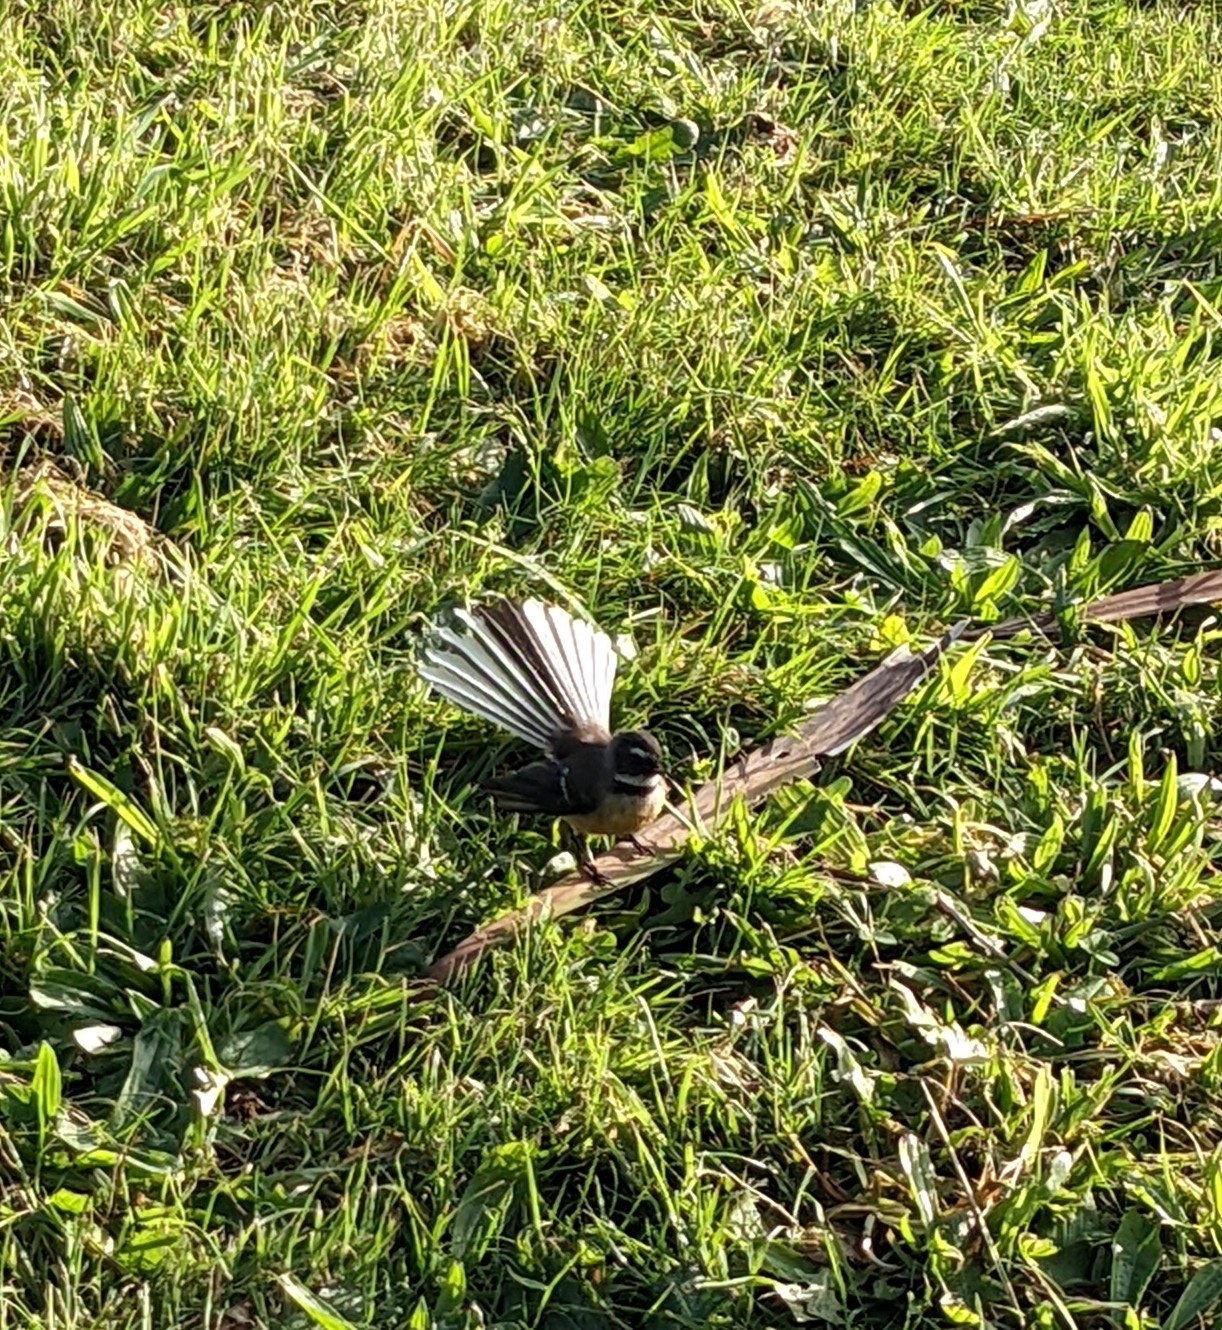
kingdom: Animalia
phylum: Chordata
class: Aves
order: Passeriformes
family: Rhipiduridae
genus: Rhipidura
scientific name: Rhipidura fuliginosa
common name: New zealand fantail
